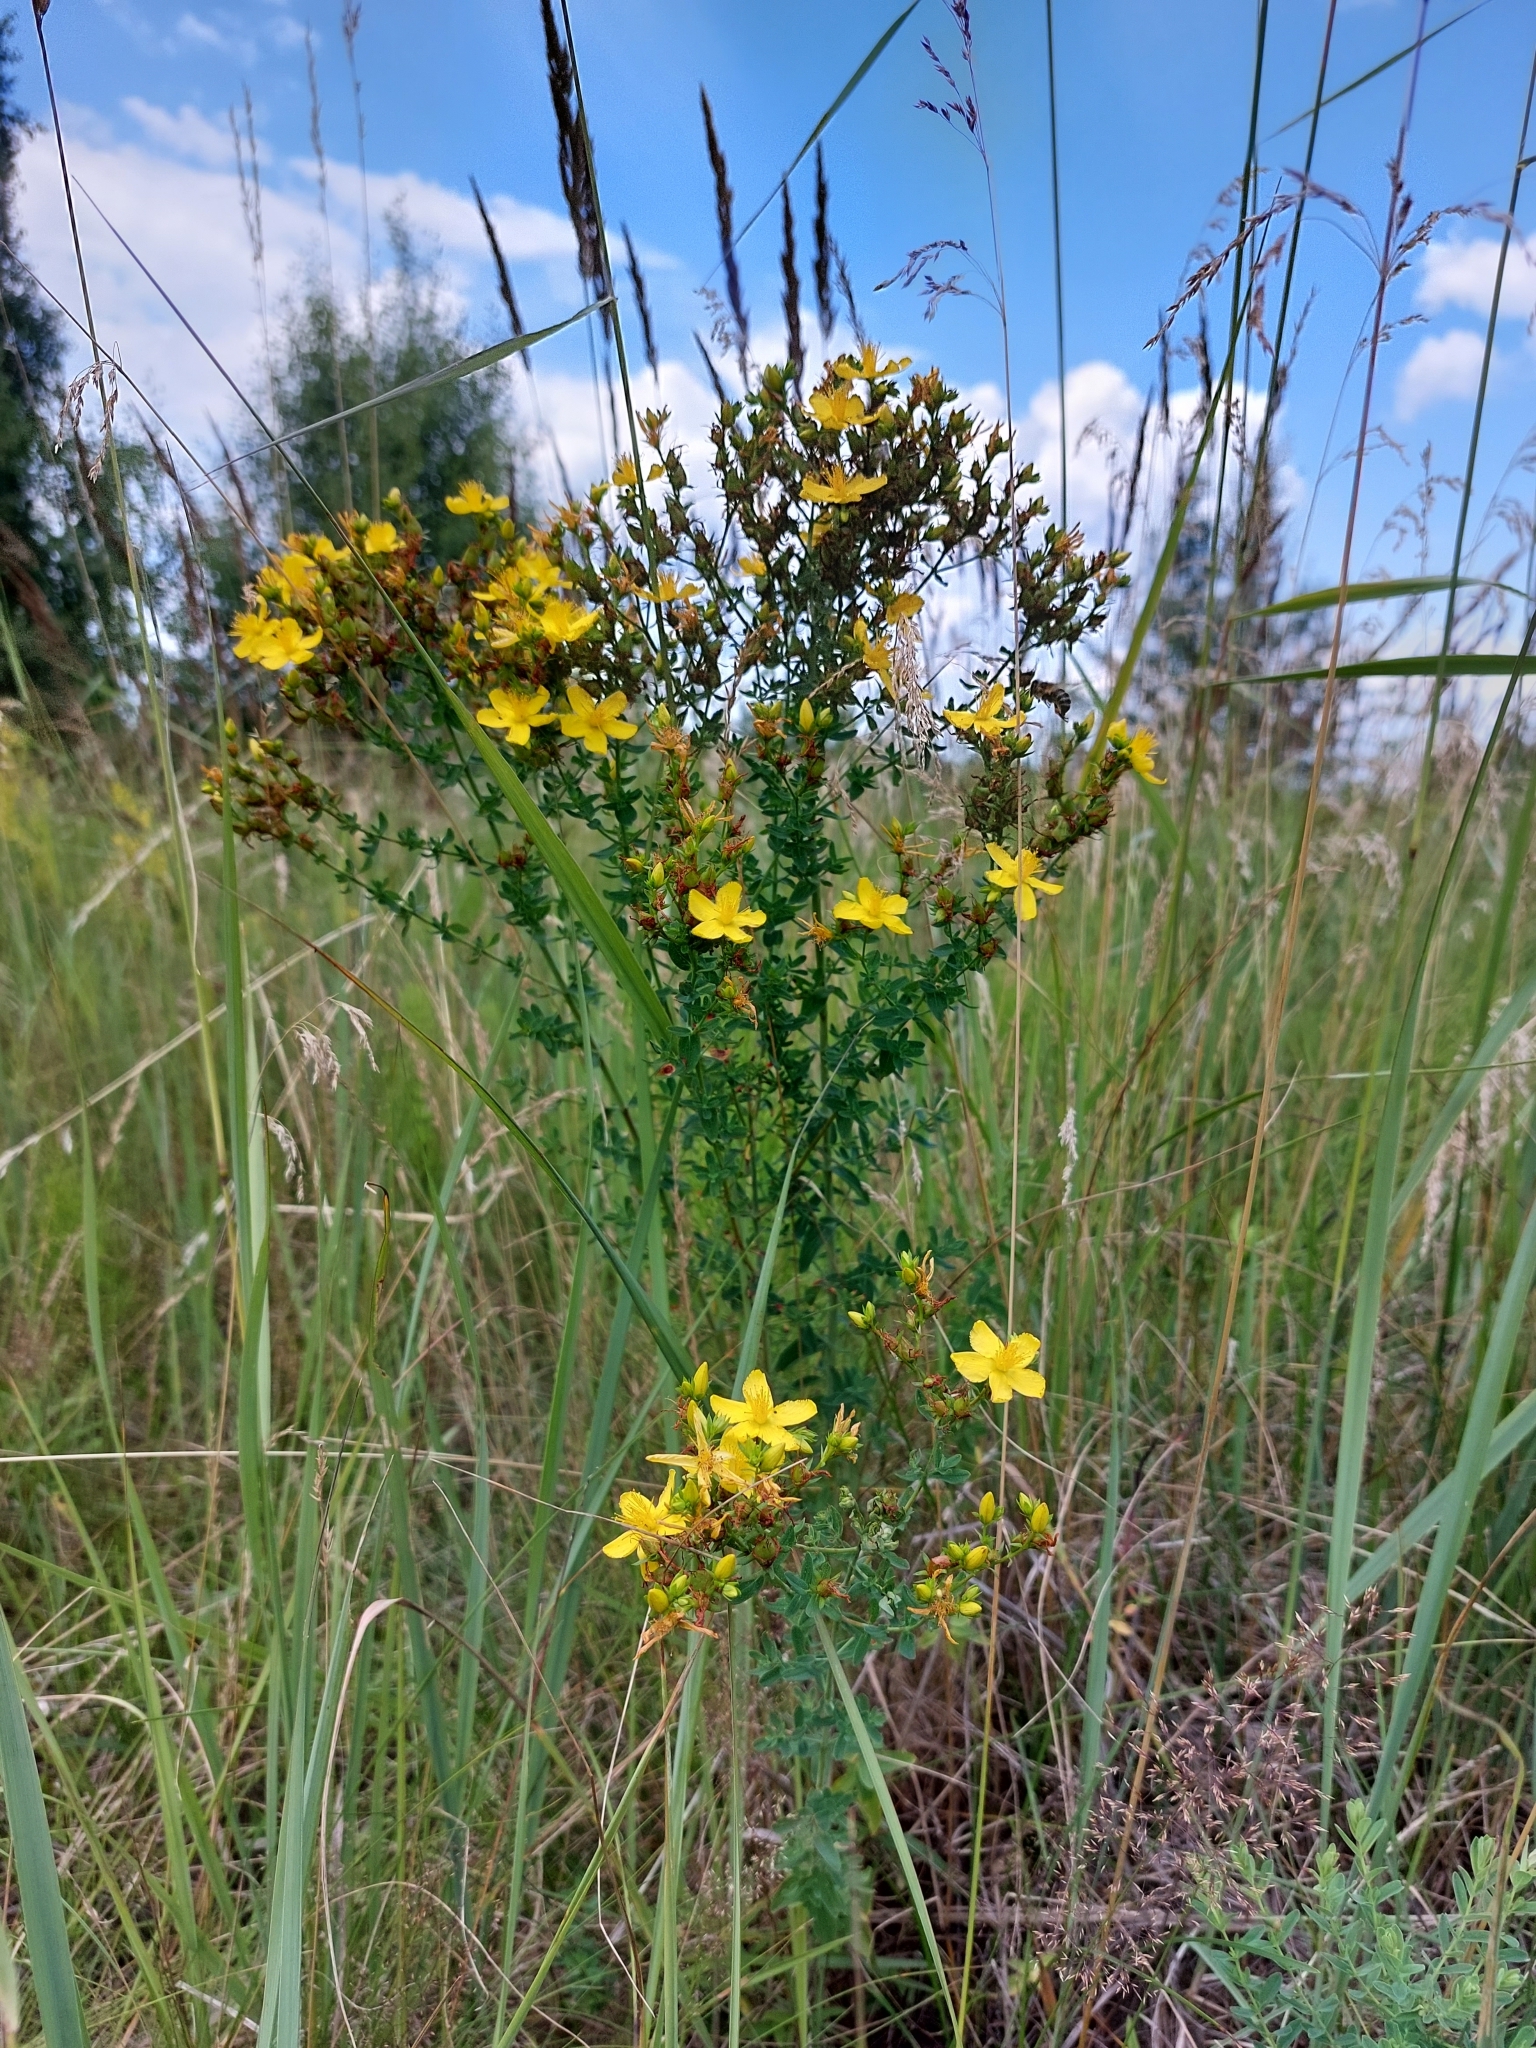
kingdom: Plantae
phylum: Tracheophyta
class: Magnoliopsida
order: Malpighiales
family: Hypericaceae
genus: Hypericum
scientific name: Hypericum perforatum
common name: Common st. johnswort
